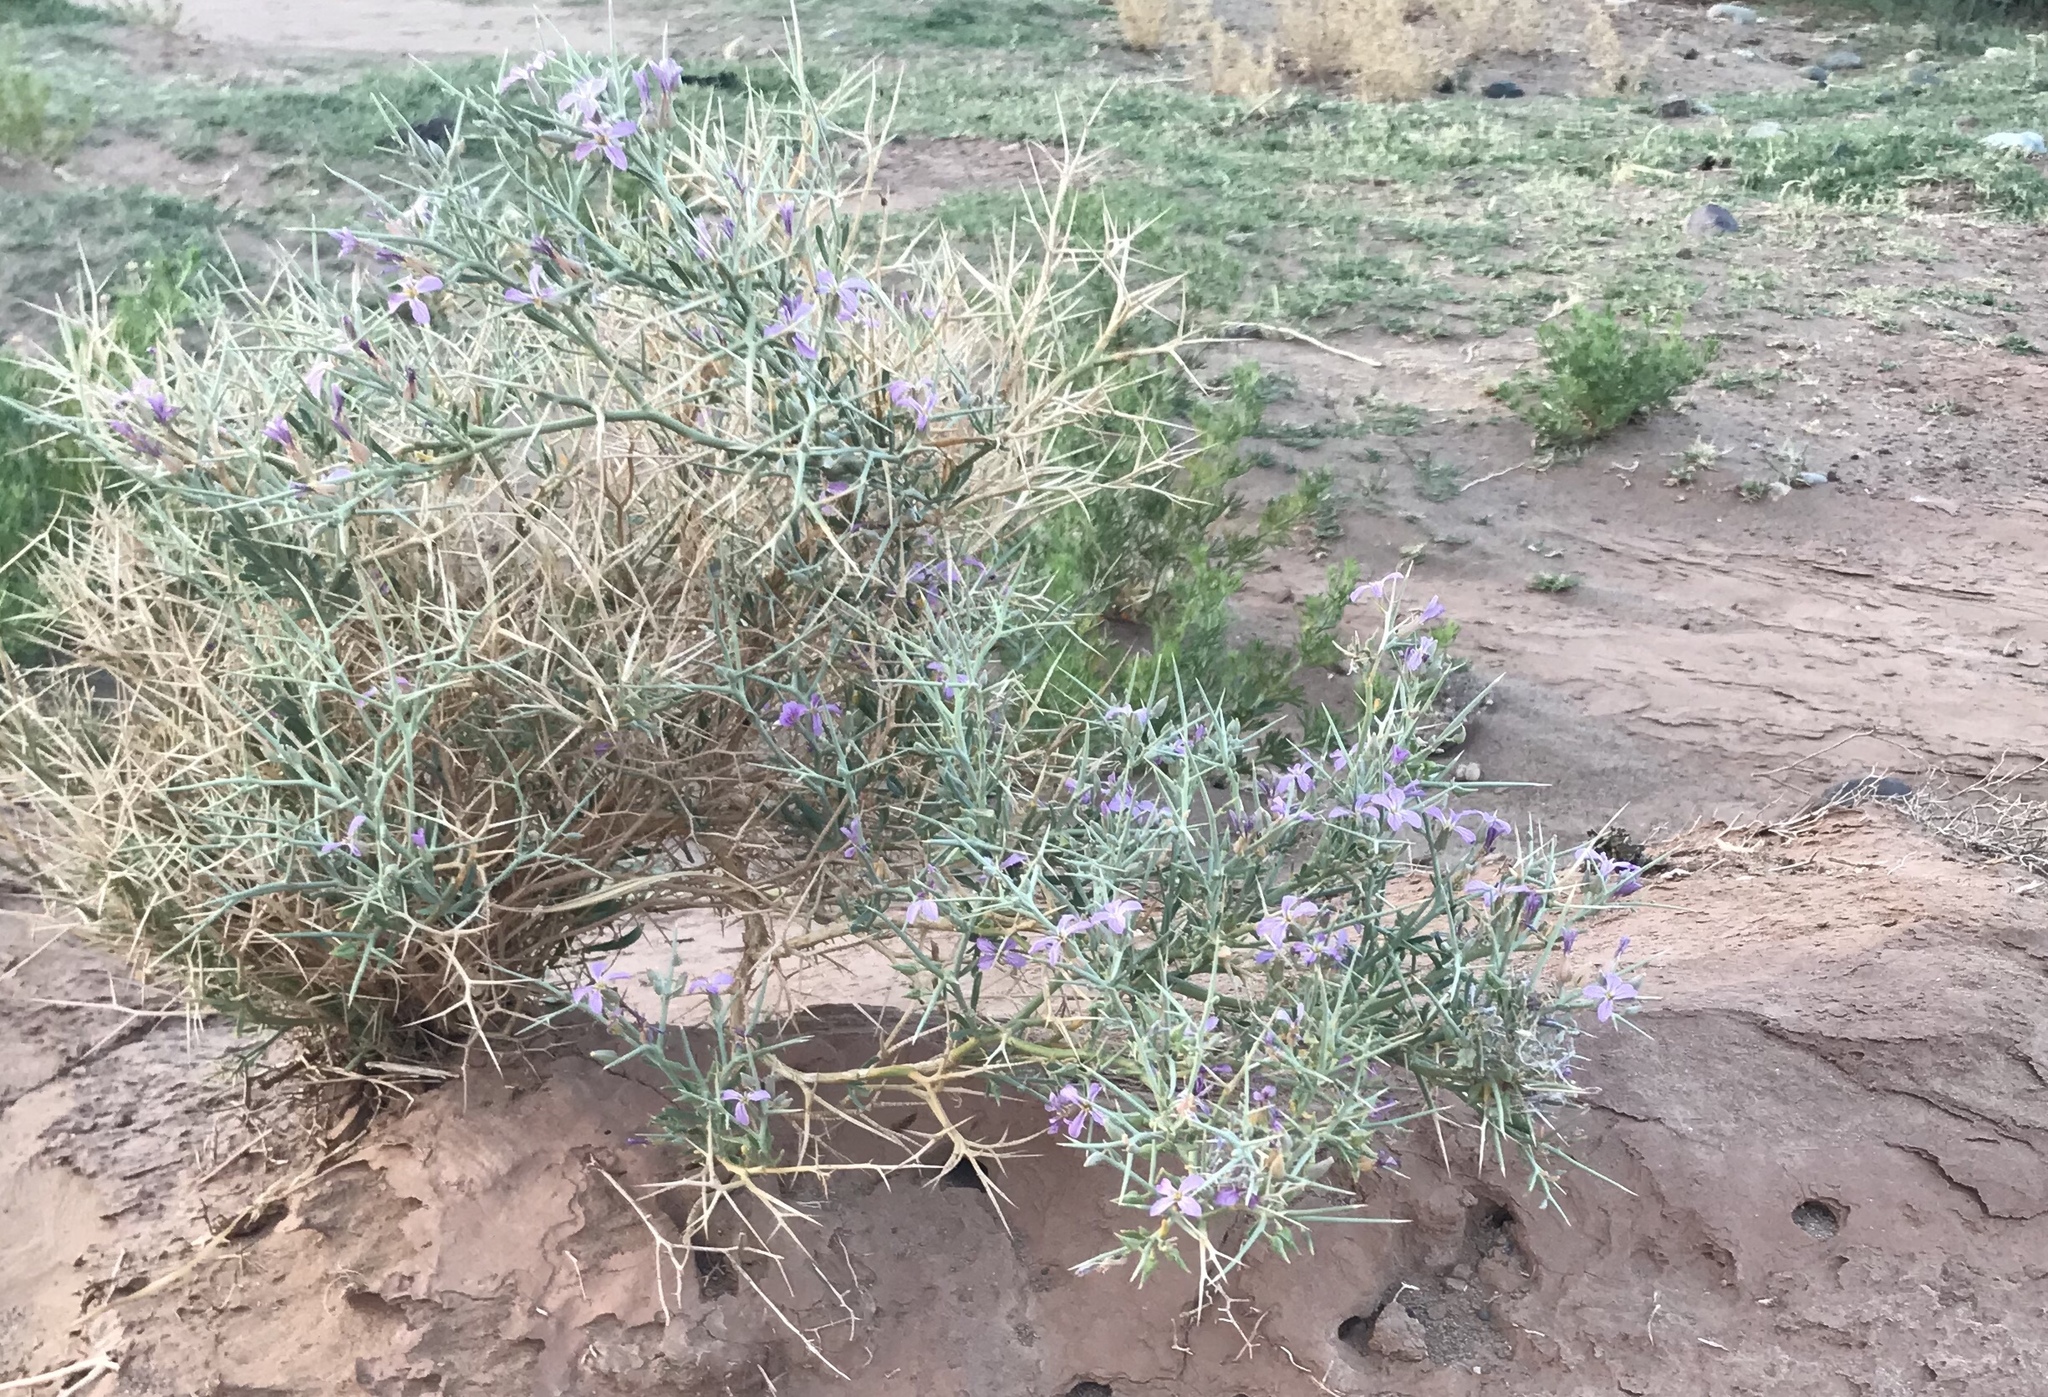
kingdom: Plantae
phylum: Tracheophyta
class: Magnoliopsida
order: Brassicales
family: Brassicaceae
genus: Zilla
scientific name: Zilla spinosa
